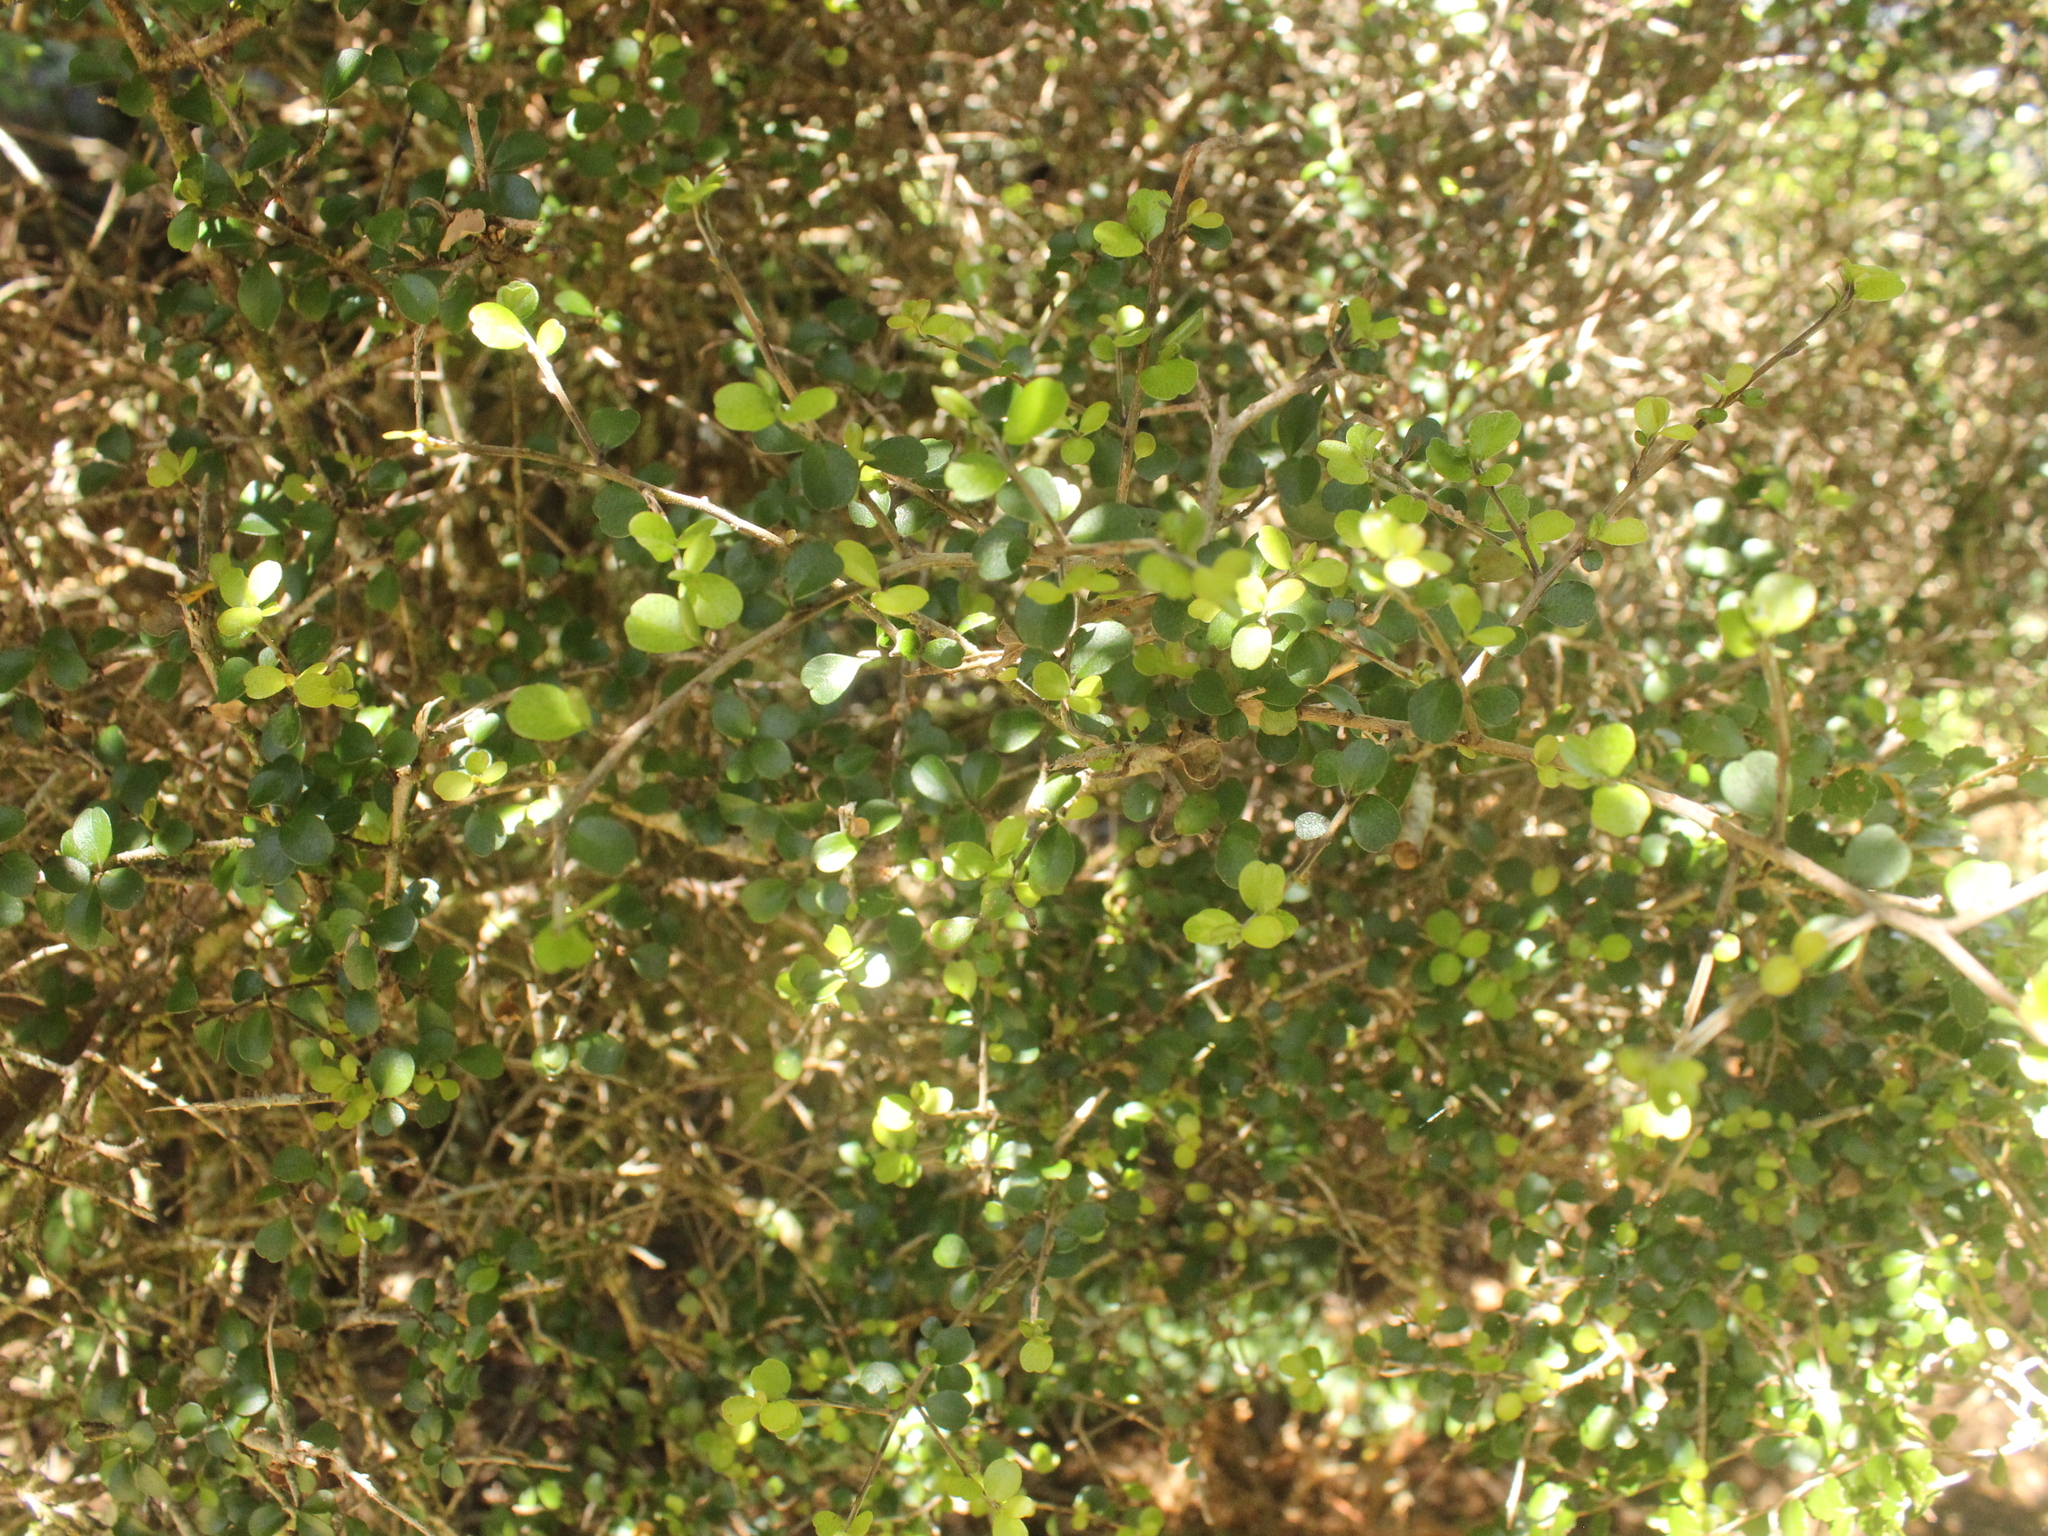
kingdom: Plantae
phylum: Tracheophyta
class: Magnoliopsida
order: Ericales
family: Primulaceae
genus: Myrsine
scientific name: Myrsine divaricata
